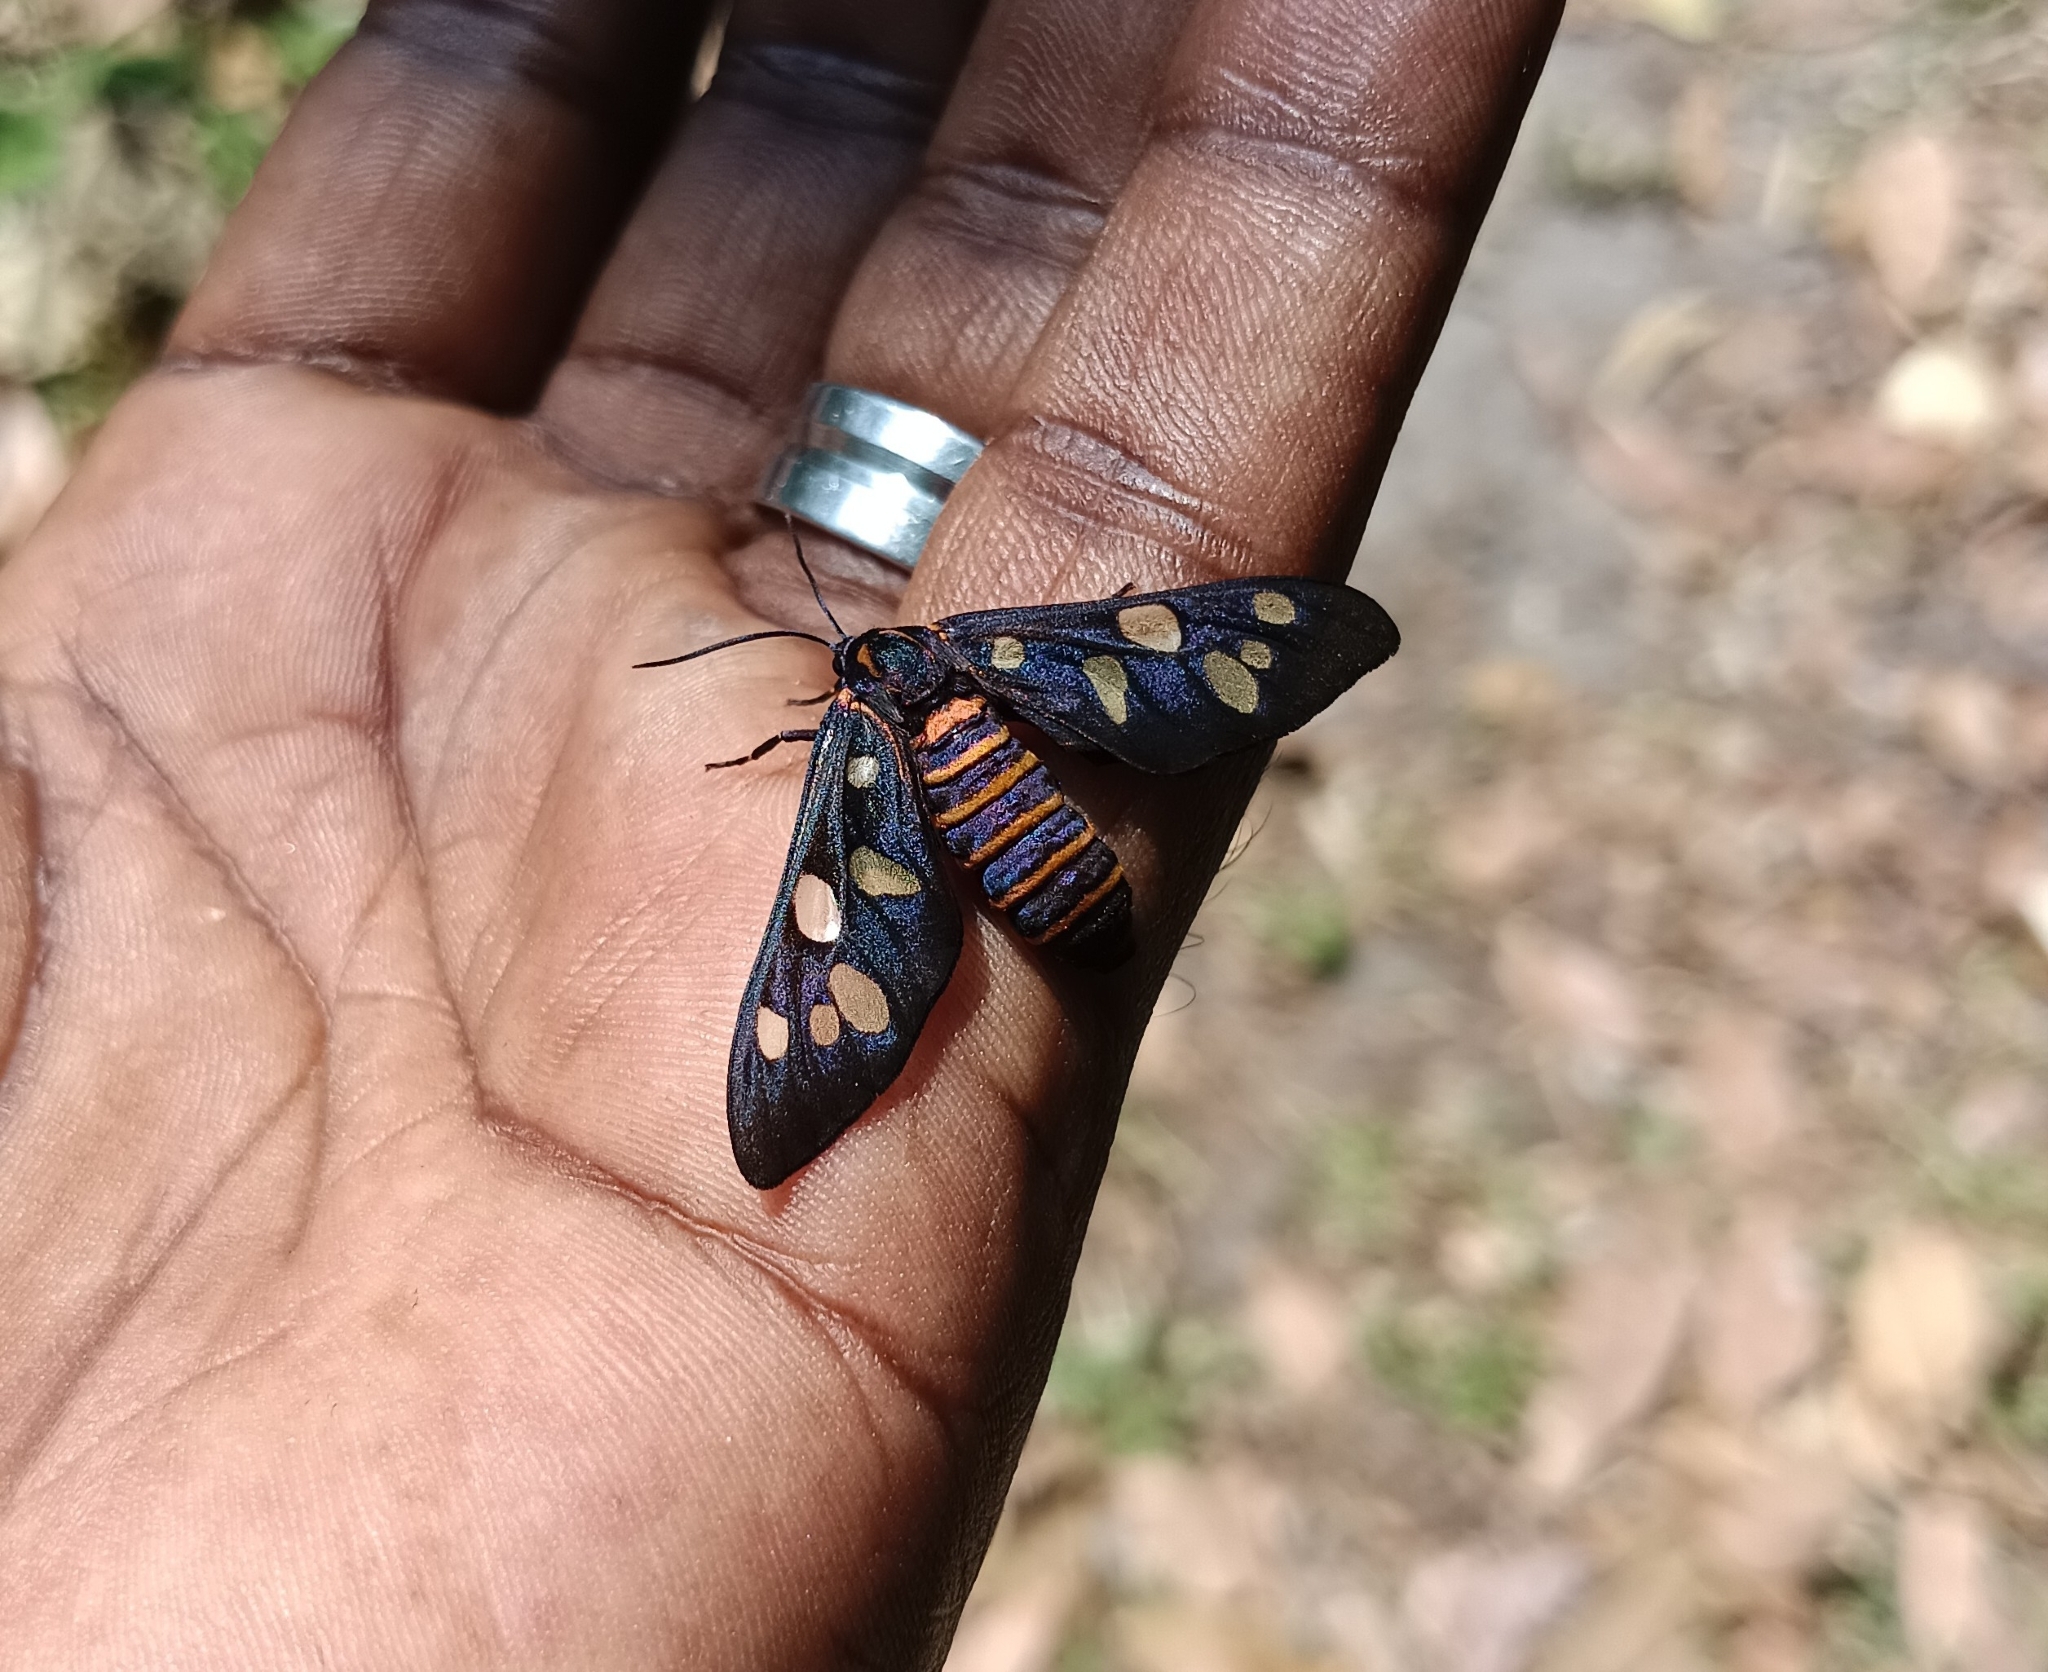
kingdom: Animalia
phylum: Arthropoda
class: Insecta
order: Lepidoptera
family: Erebidae
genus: Amata
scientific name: Amata passalis
